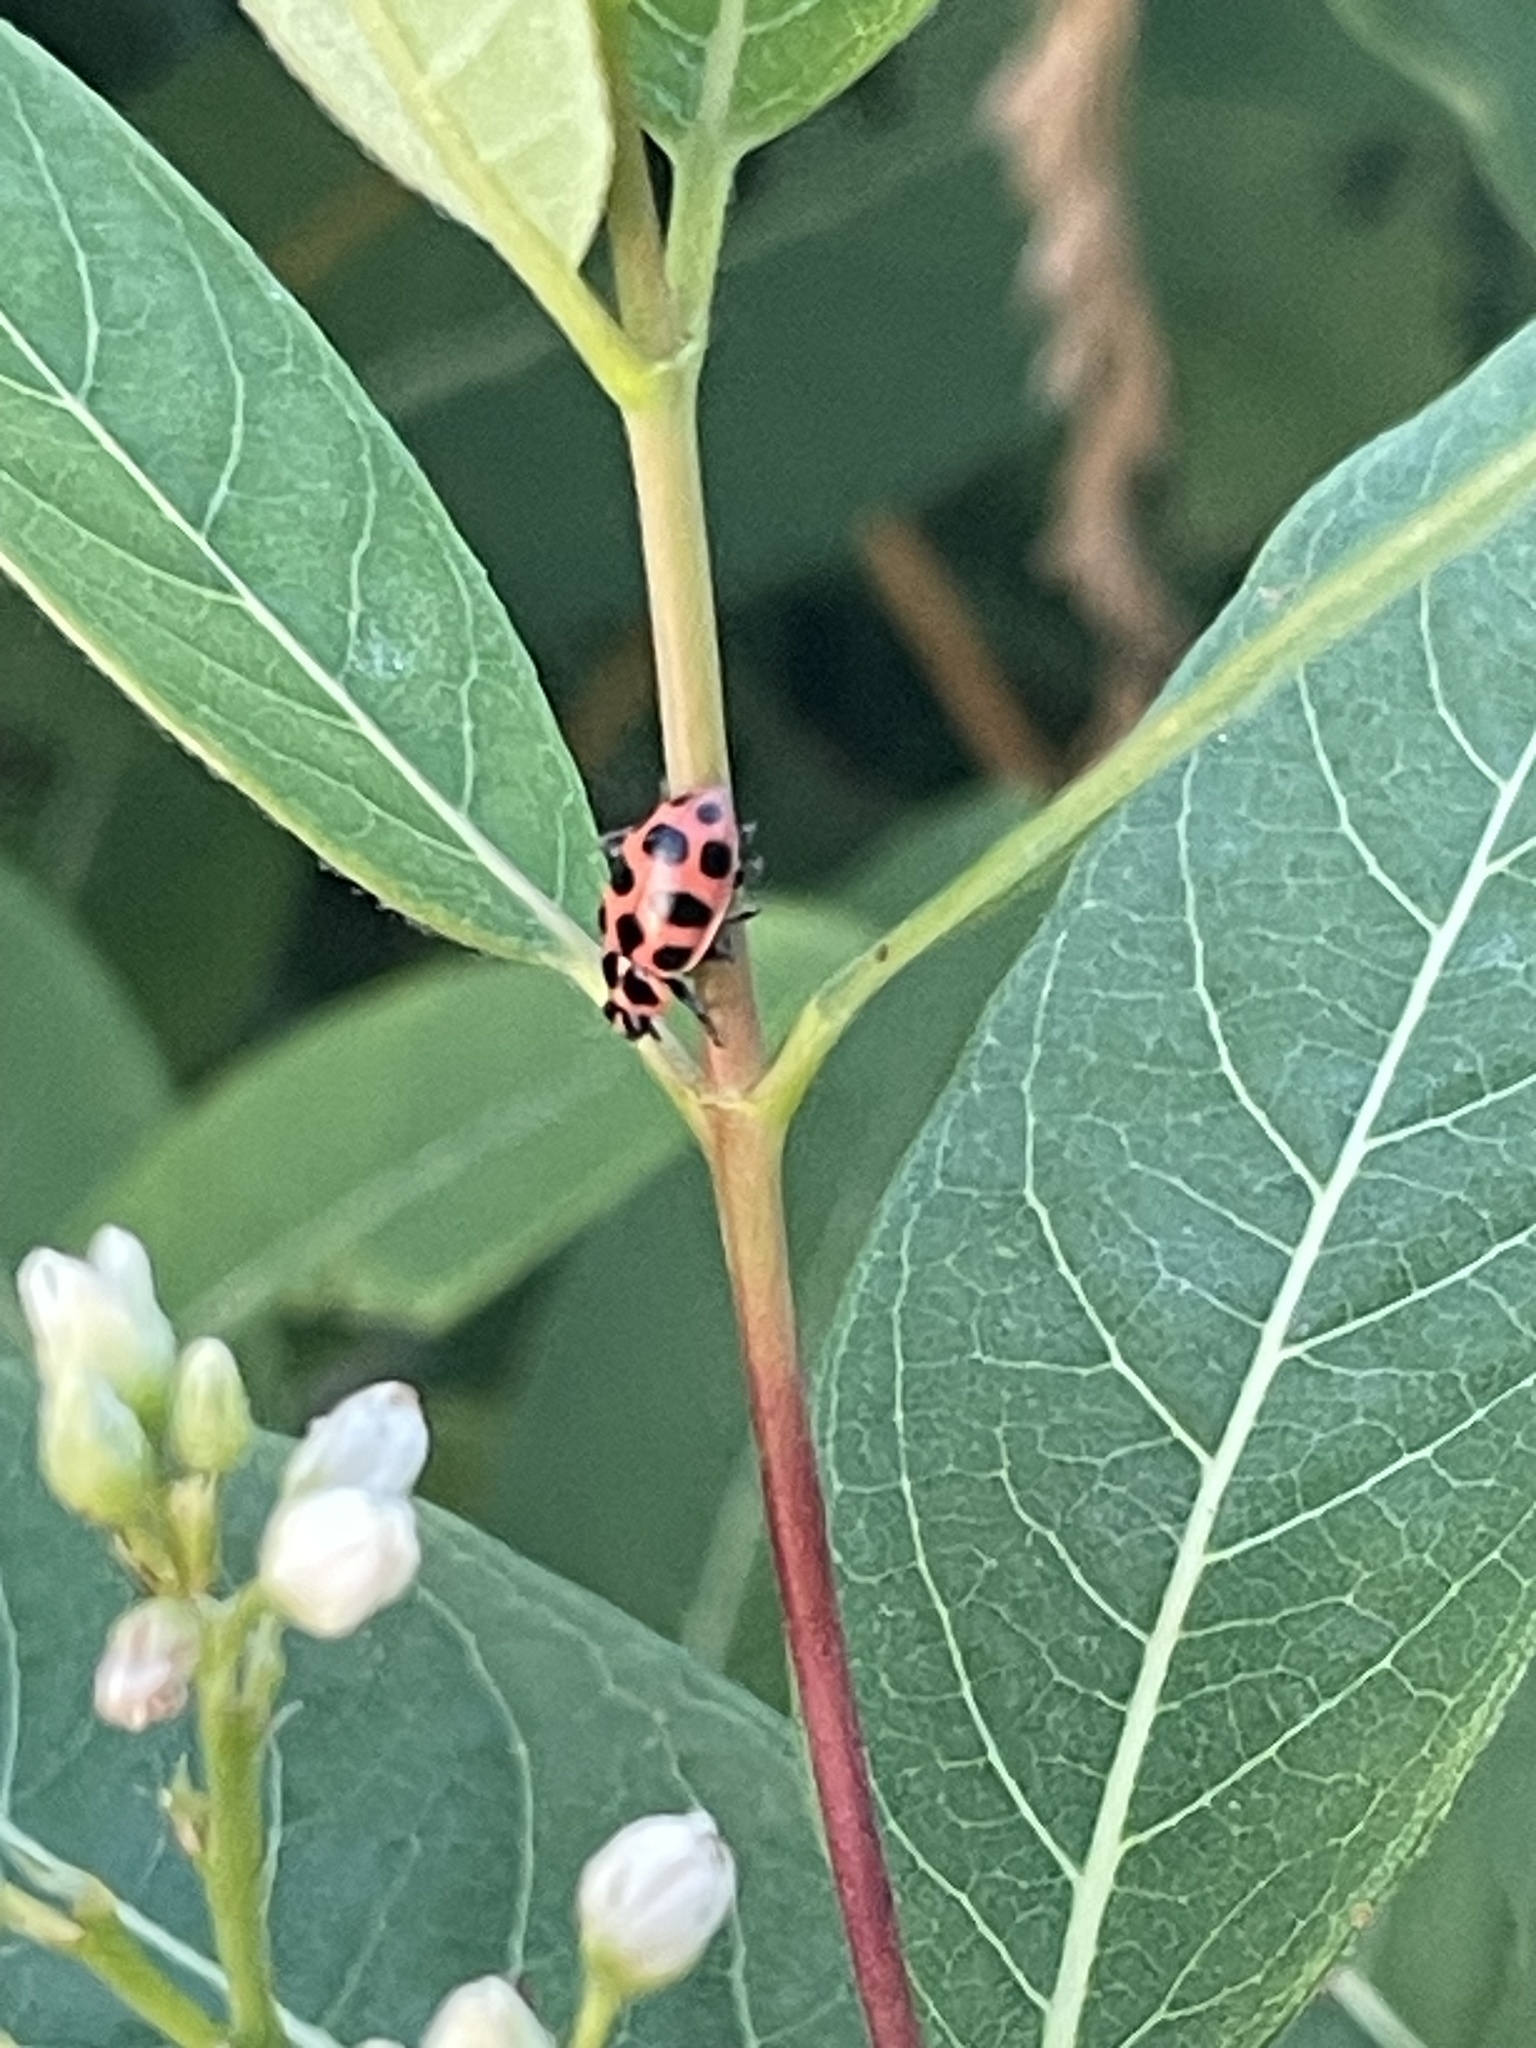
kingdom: Animalia
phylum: Arthropoda
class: Insecta
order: Coleoptera
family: Coccinellidae
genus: Coleomegilla
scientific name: Coleomegilla maculata
